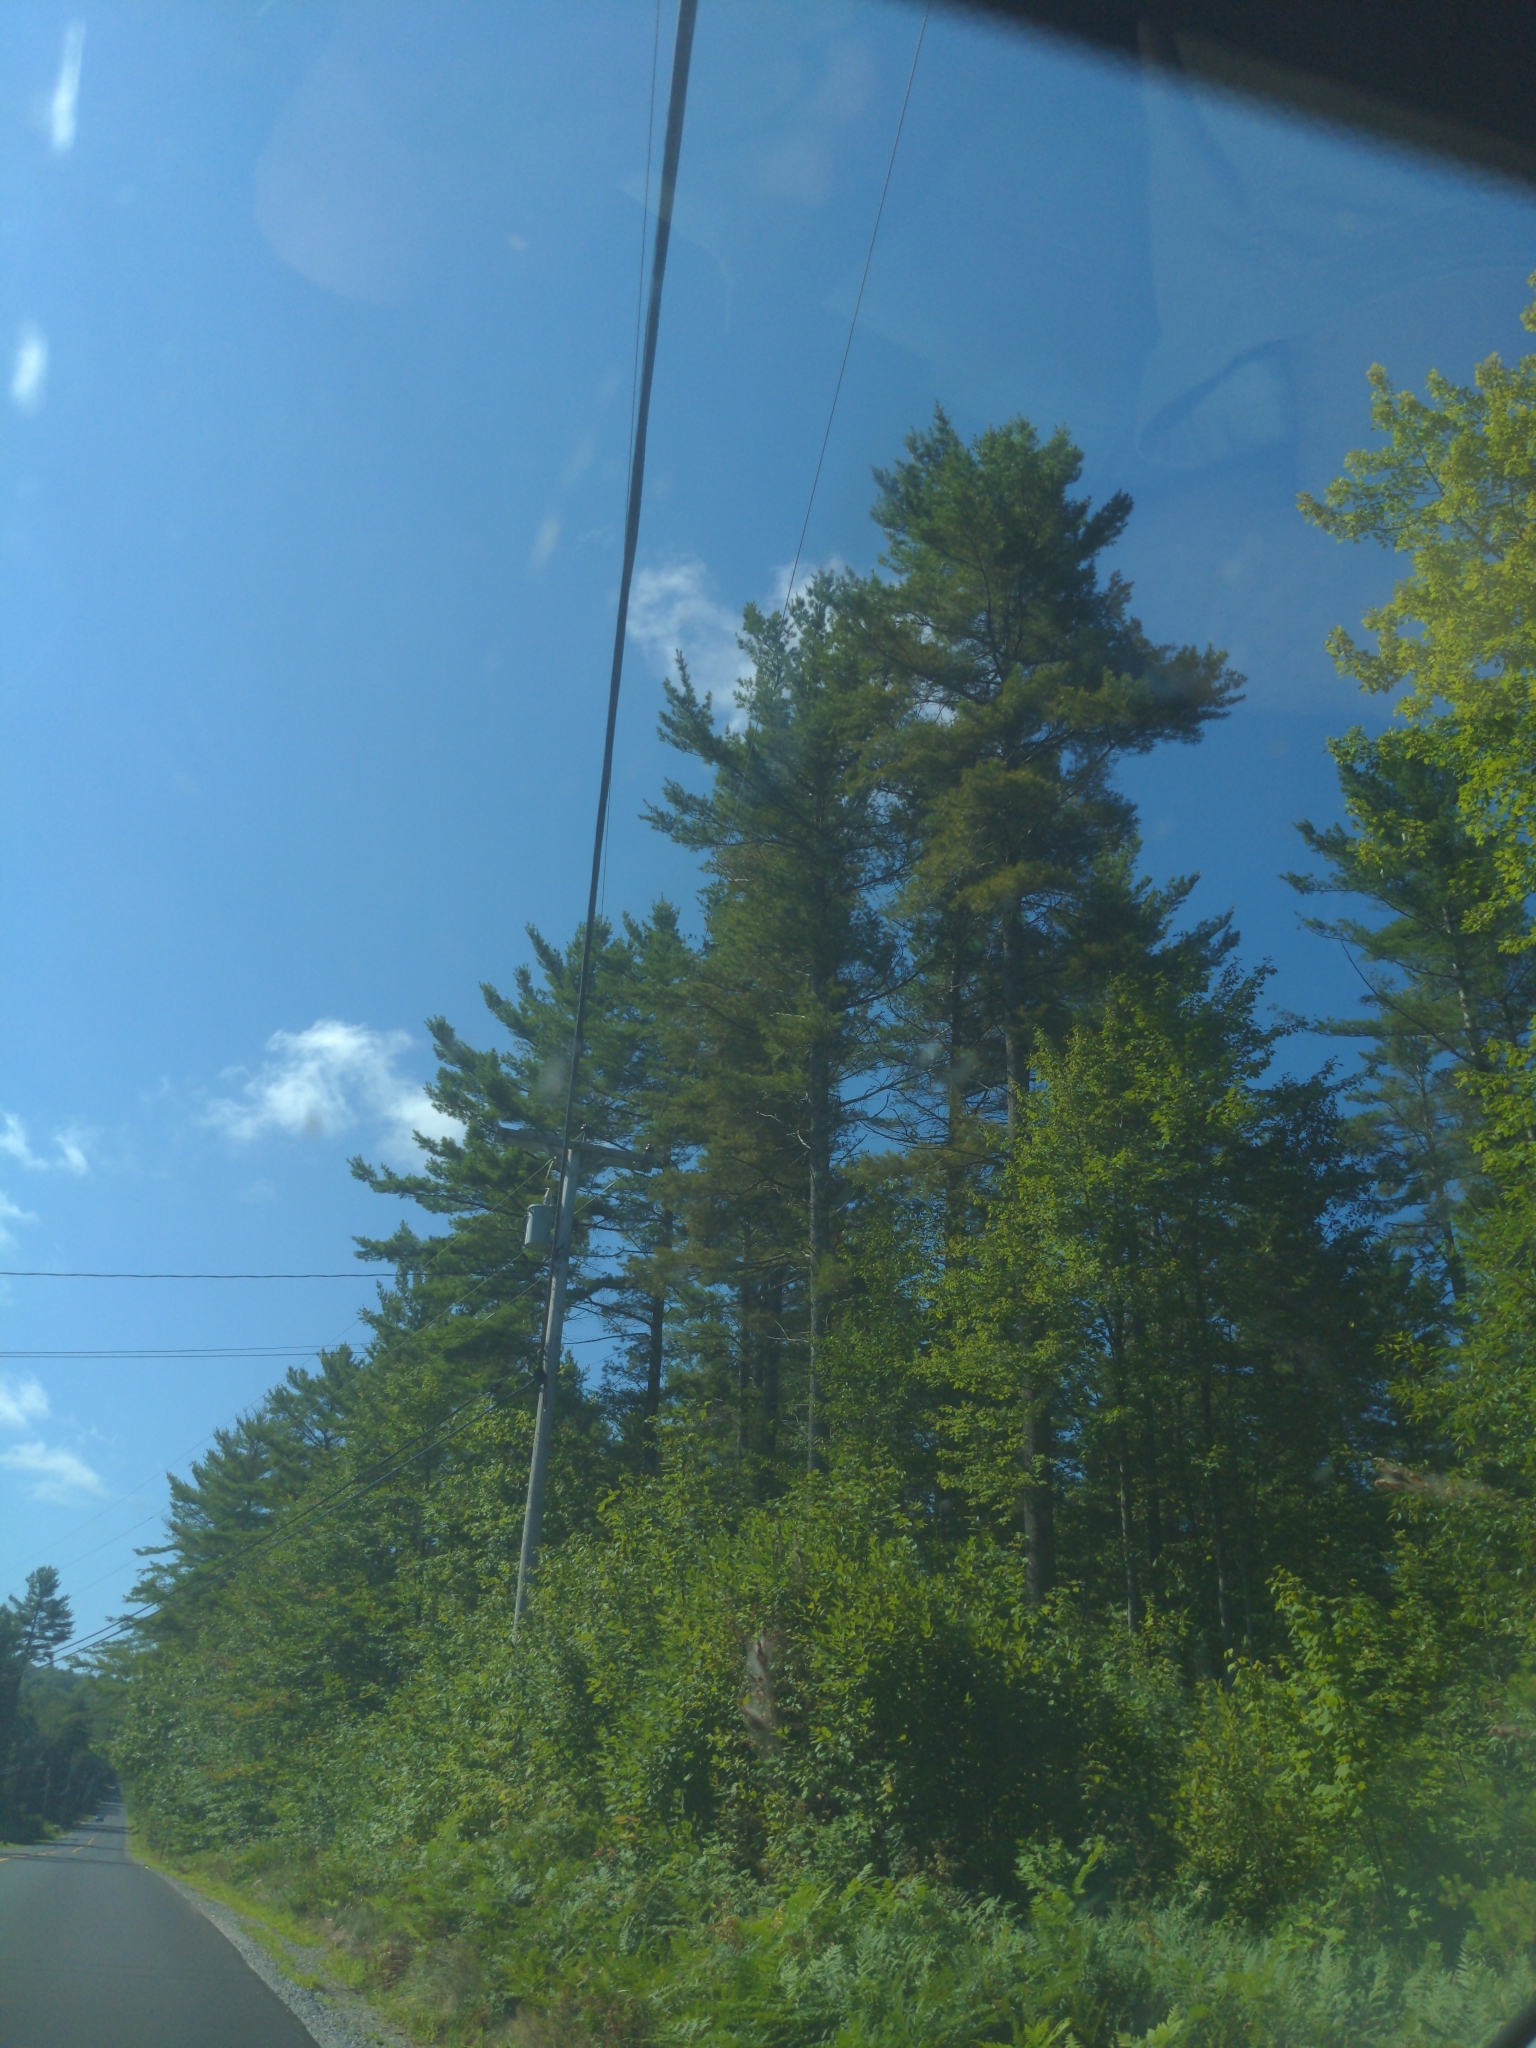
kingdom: Plantae
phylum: Tracheophyta
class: Pinopsida
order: Pinales
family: Pinaceae
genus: Pinus
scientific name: Pinus strobus
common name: Weymouth pine
